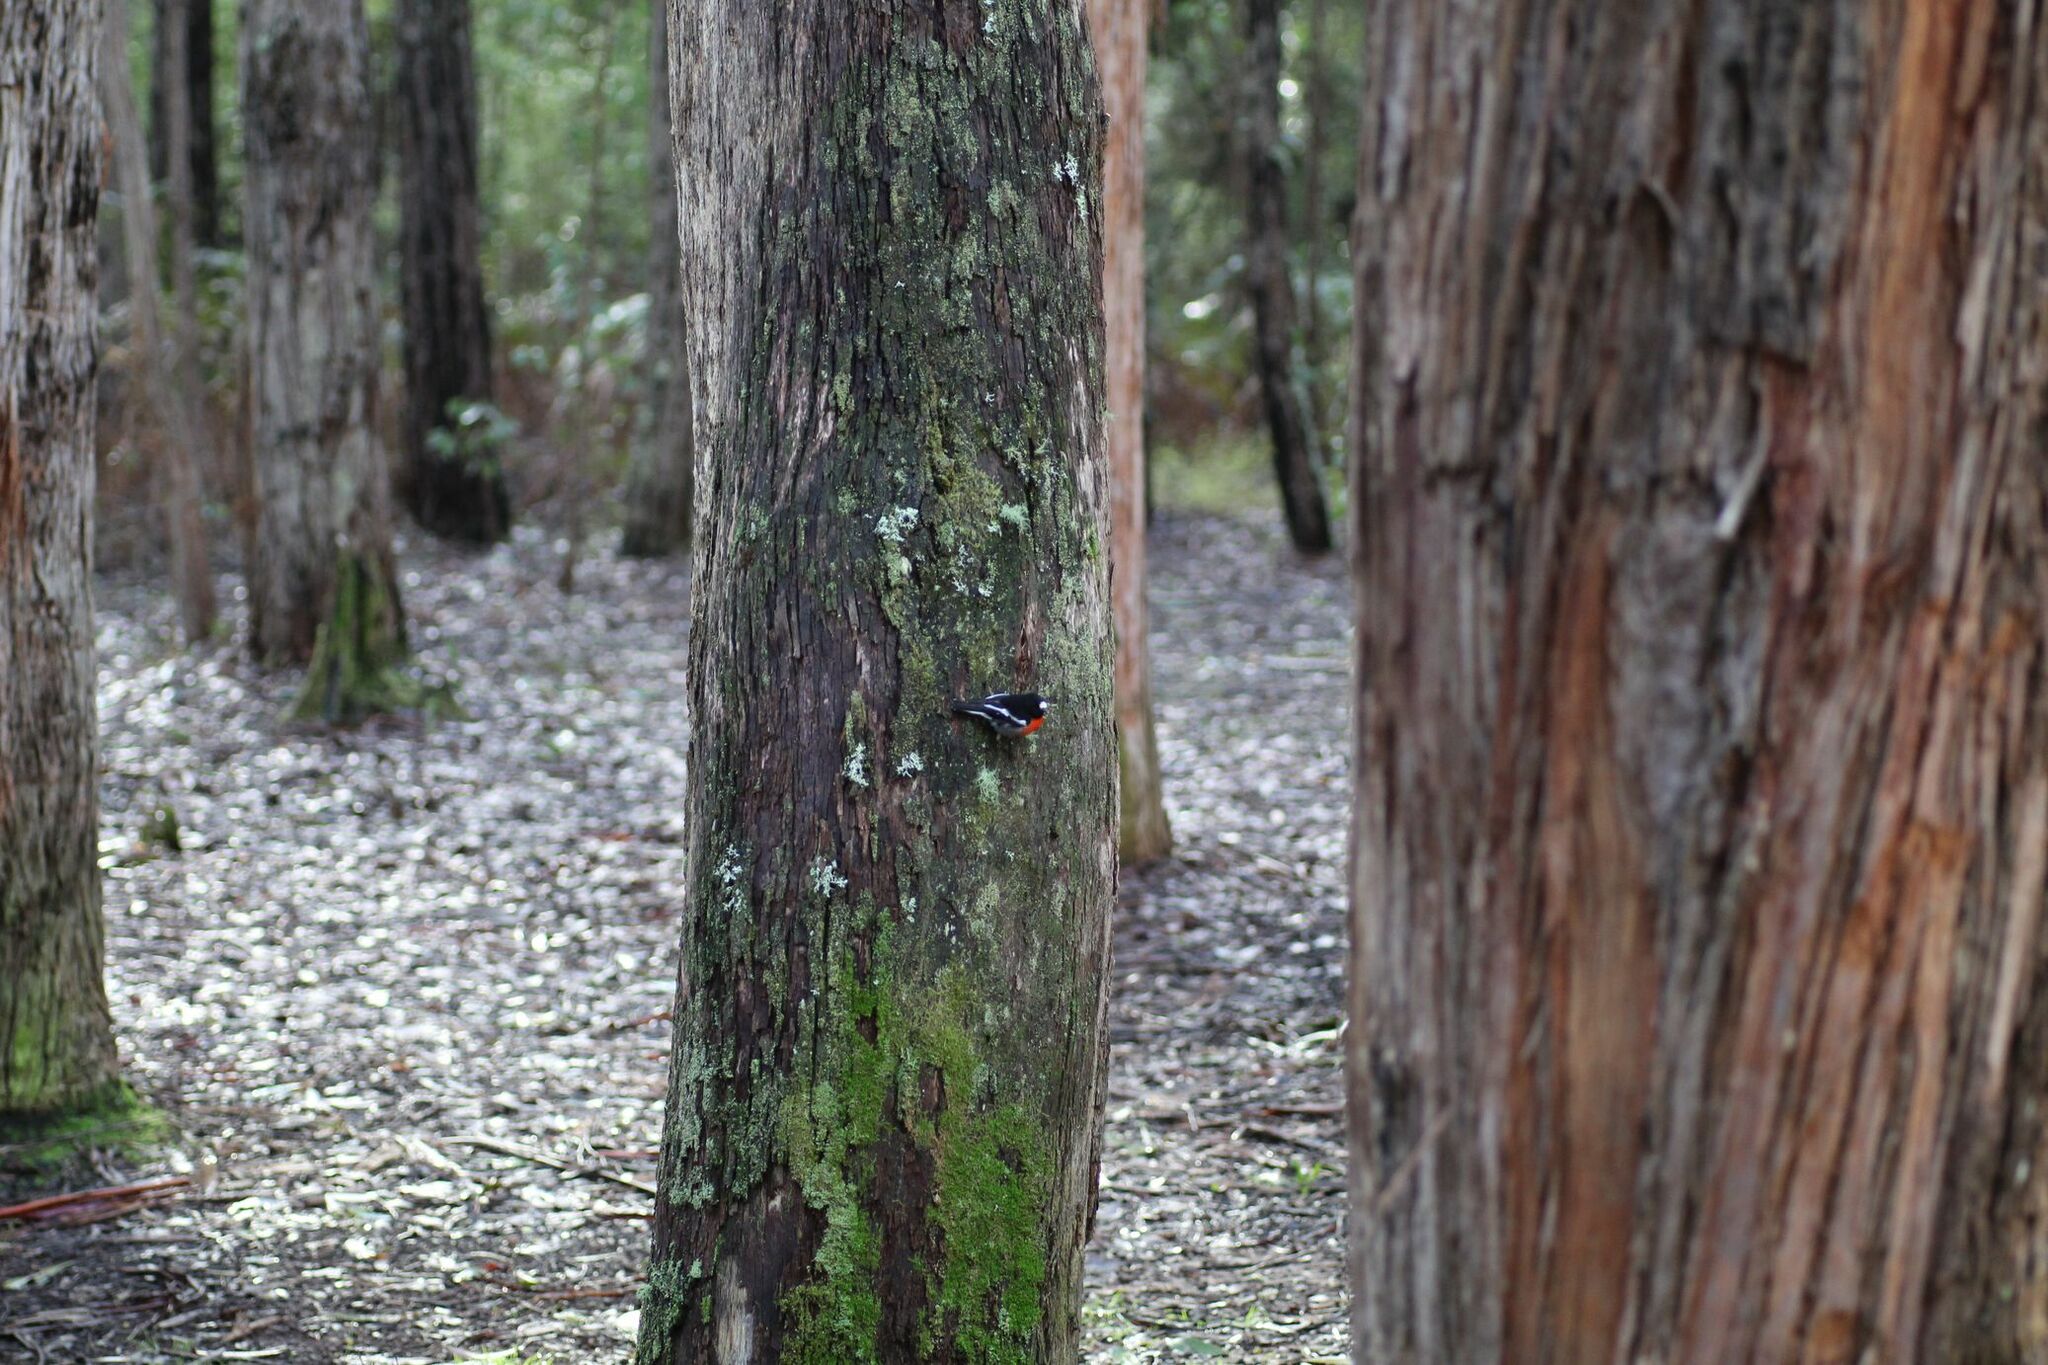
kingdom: Animalia
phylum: Chordata
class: Aves
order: Passeriformes
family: Petroicidae
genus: Petroica
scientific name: Petroica boodang
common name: Scarlet robin
